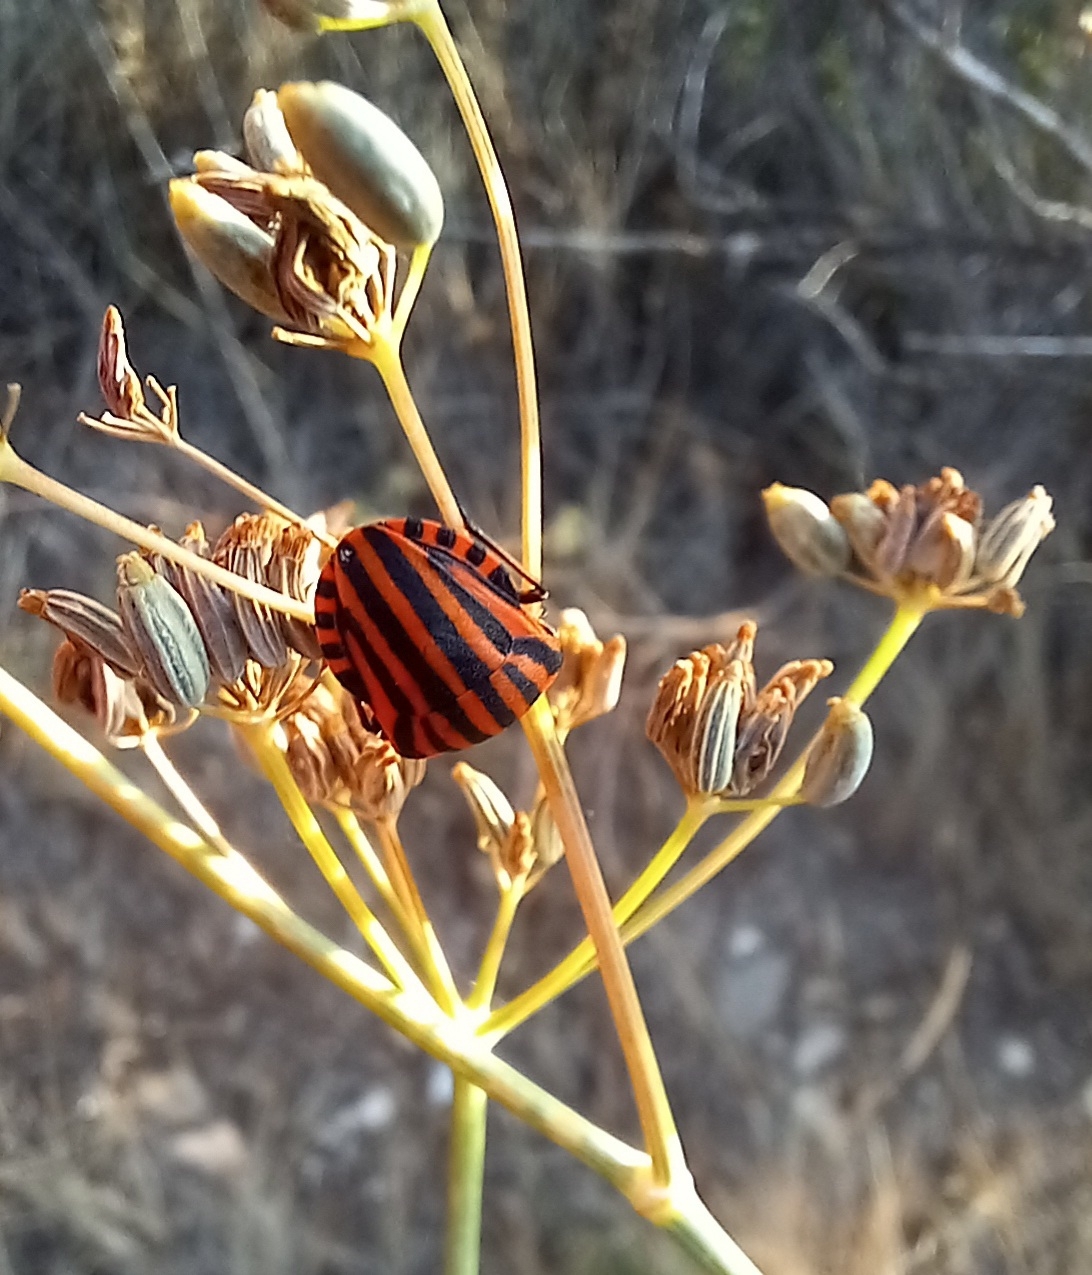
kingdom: Animalia
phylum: Arthropoda
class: Insecta
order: Hemiptera
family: Pentatomidae
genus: Graphosoma
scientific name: Graphosoma italicum
